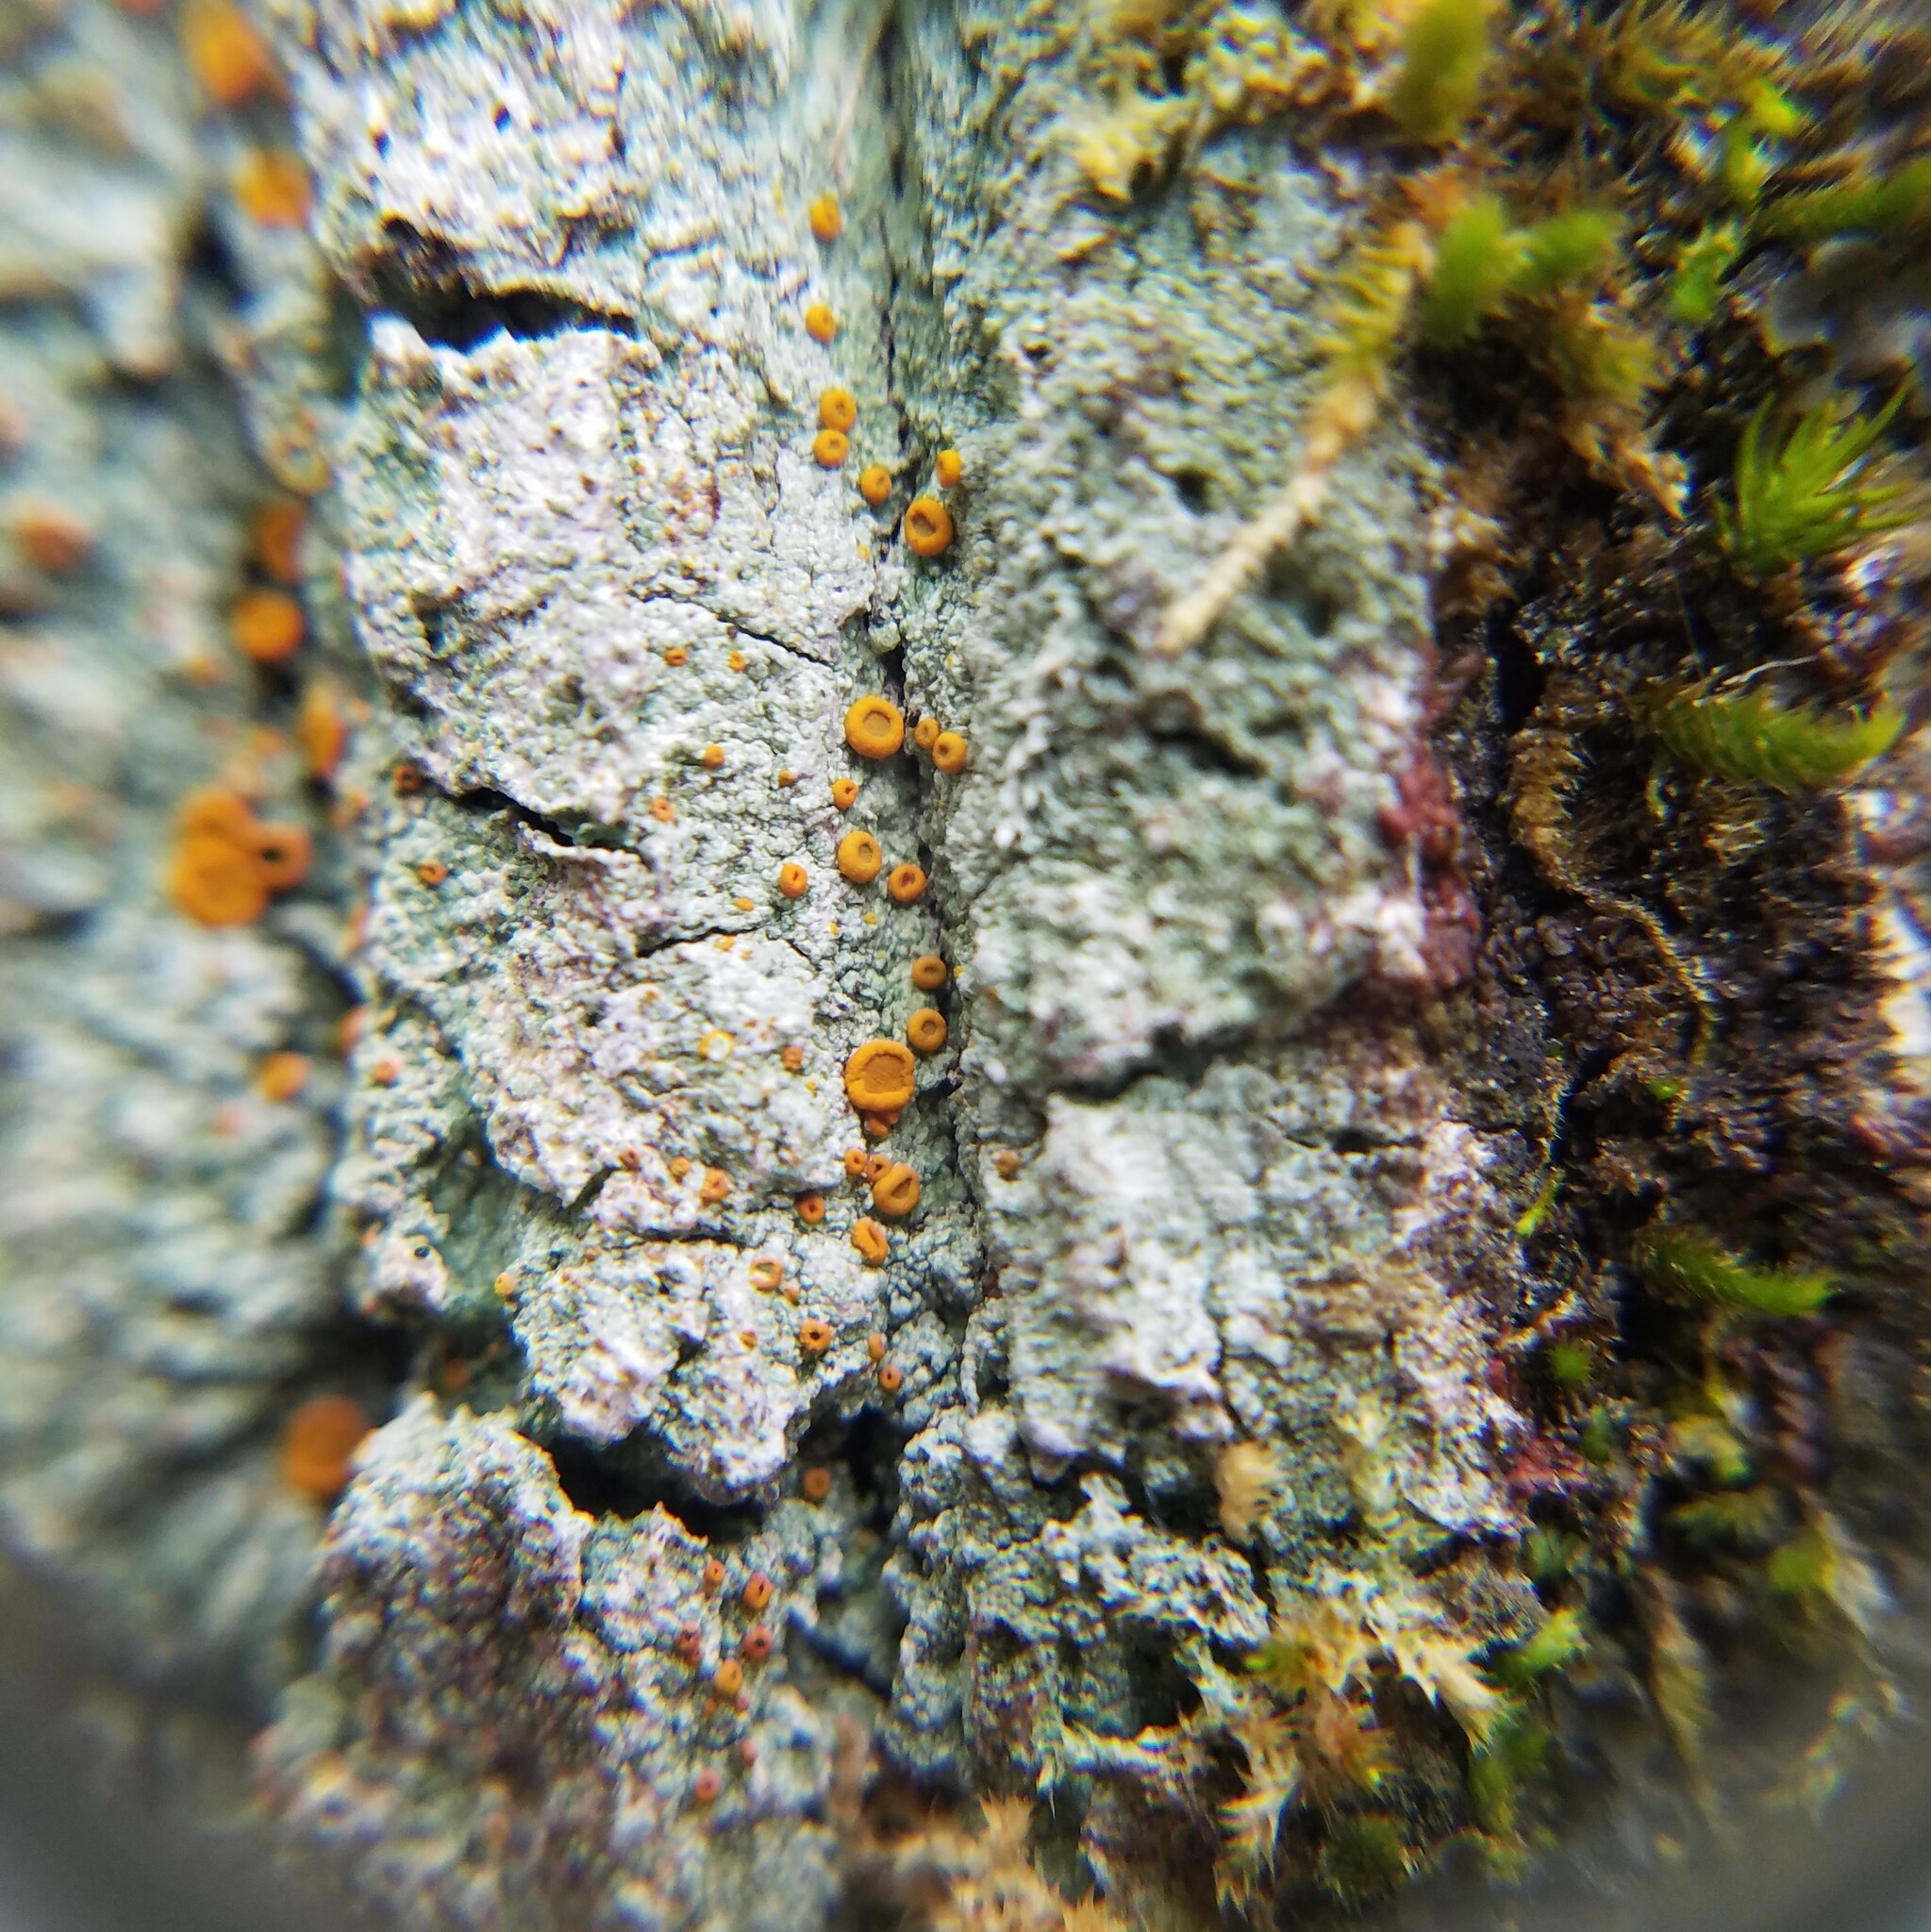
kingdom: Fungi
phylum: Ascomycota
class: Lecanoromycetes
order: Teloschistales
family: Brigantiaeaceae
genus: Brigantiaea
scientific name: Brigantiaea leucoxantha
